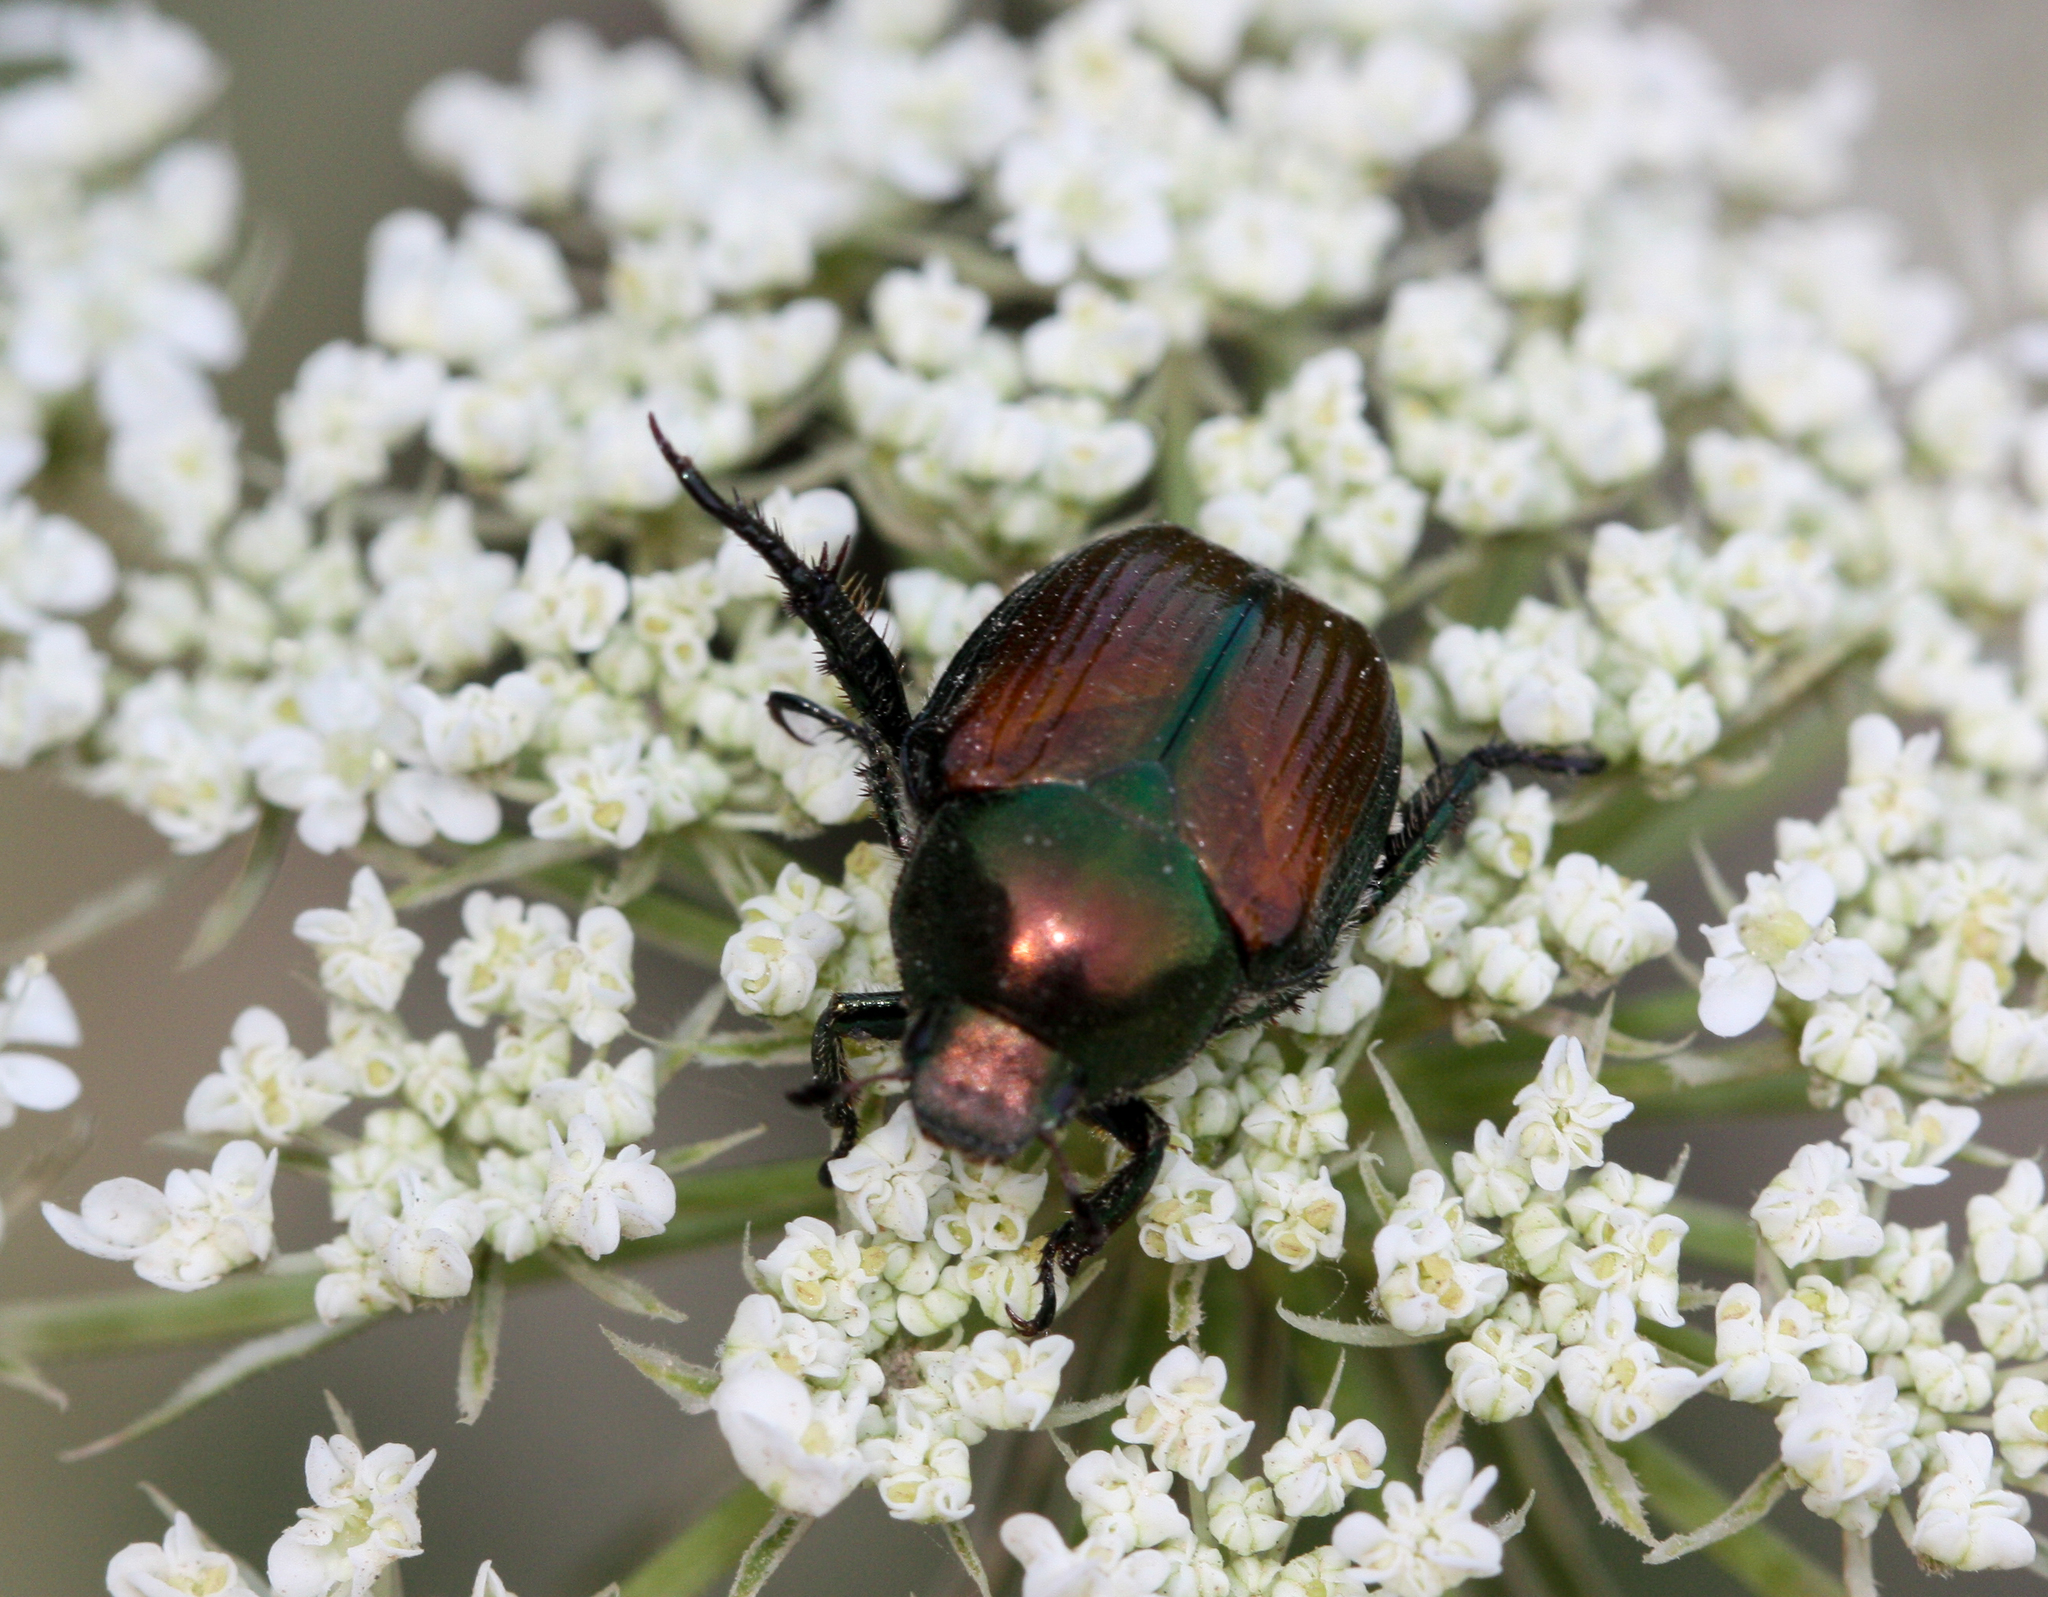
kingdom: Animalia
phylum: Arthropoda
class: Insecta
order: Coleoptera
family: Scarabaeidae
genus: Popillia
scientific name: Popillia japonica
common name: Japanese beetle
